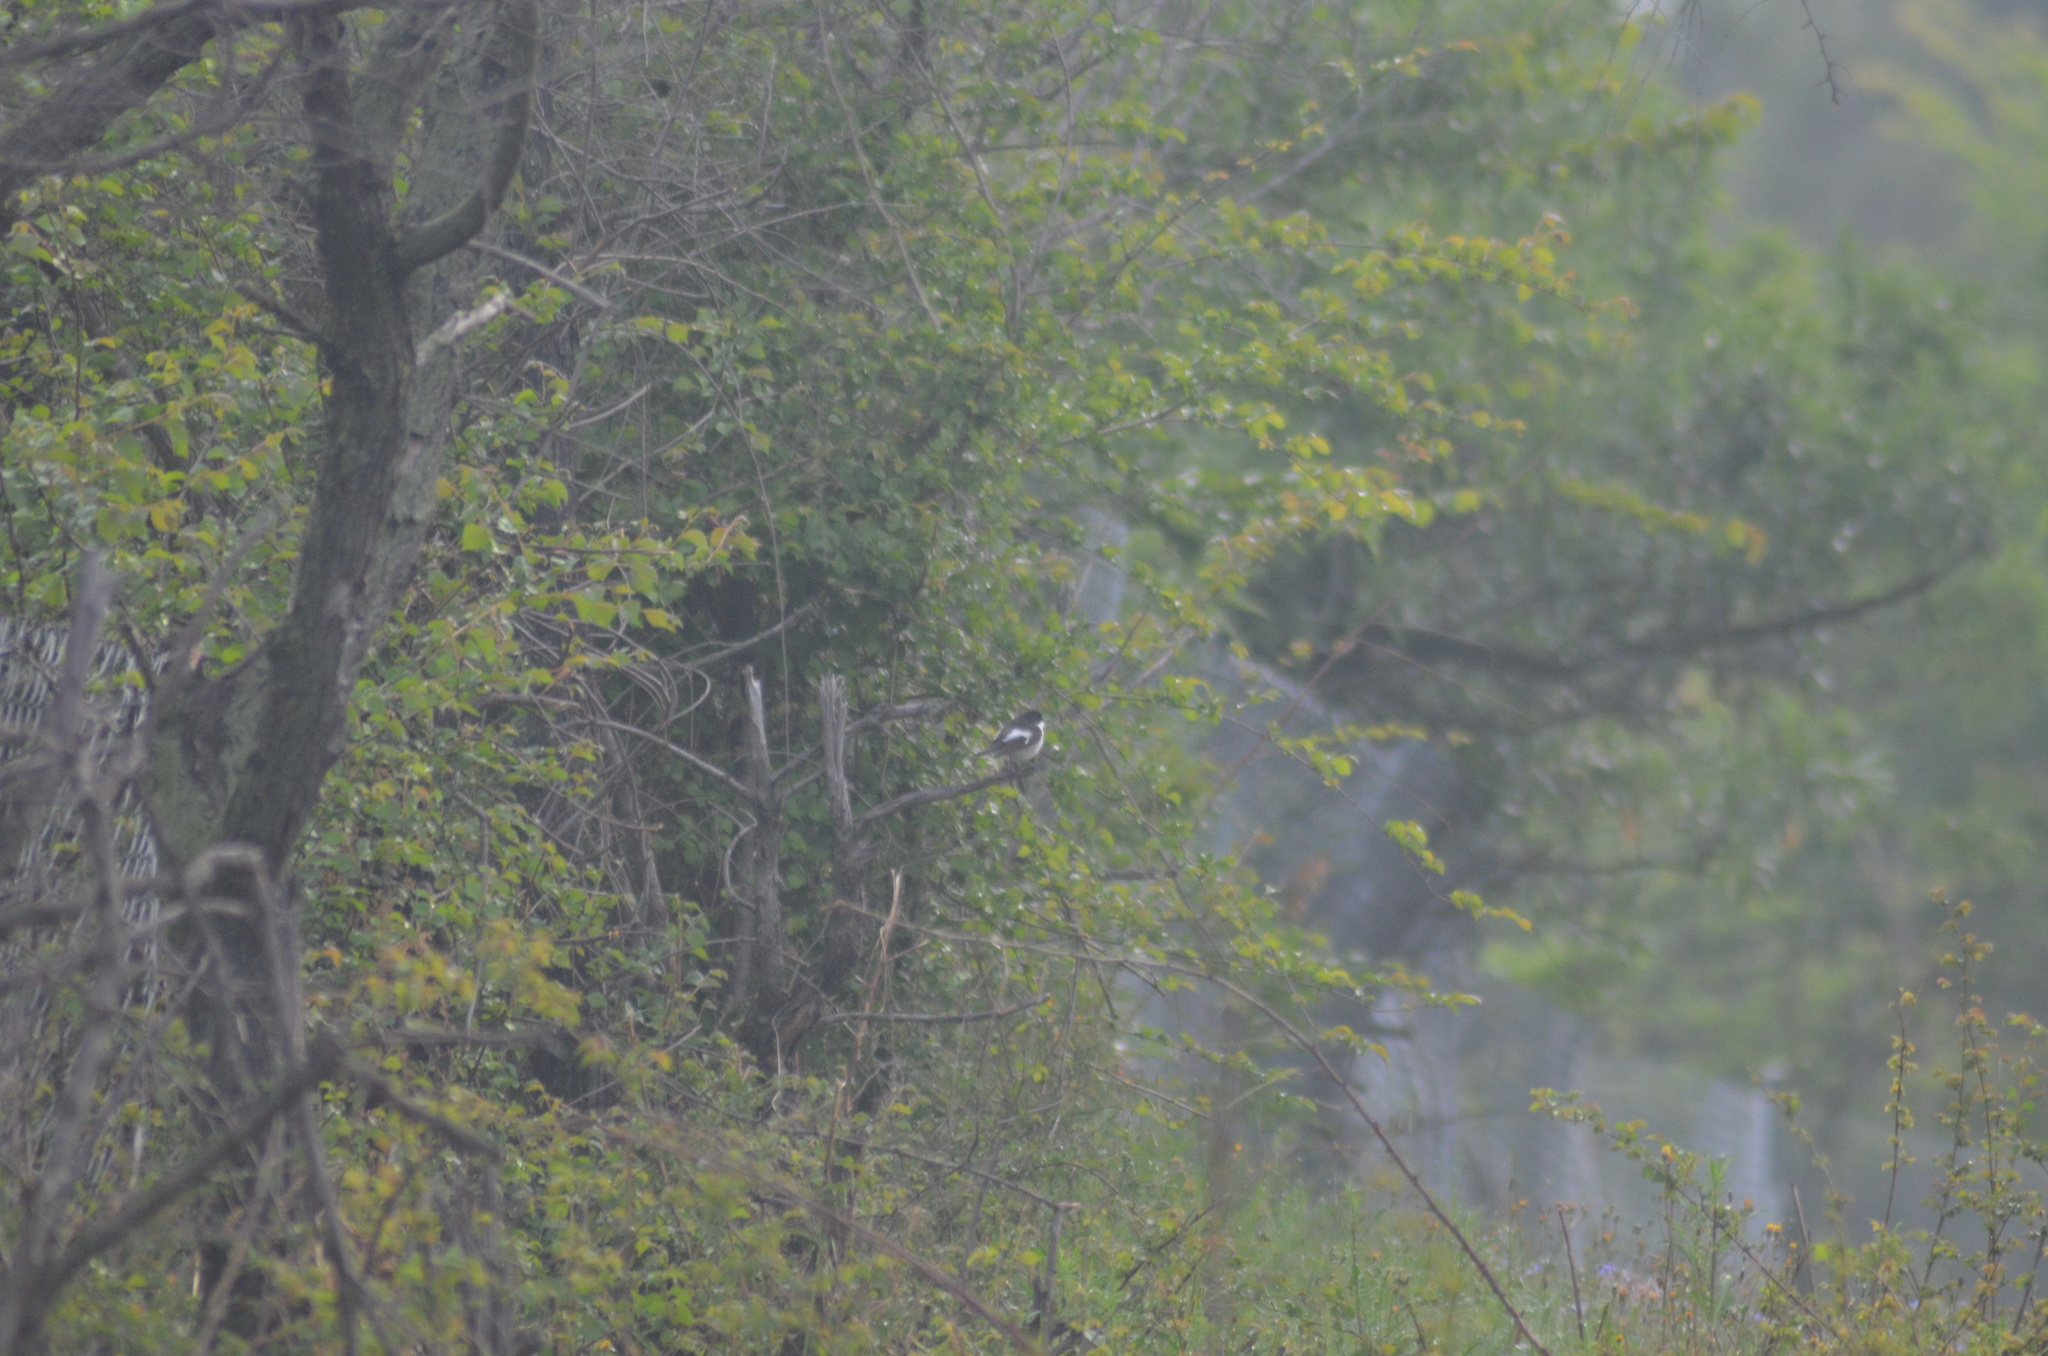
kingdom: Animalia
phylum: Chordata
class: Aves
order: Passeriformes
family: Muscicapidae
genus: Ficedula
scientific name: Ficedula hypoleuca
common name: European pied flycatcher
